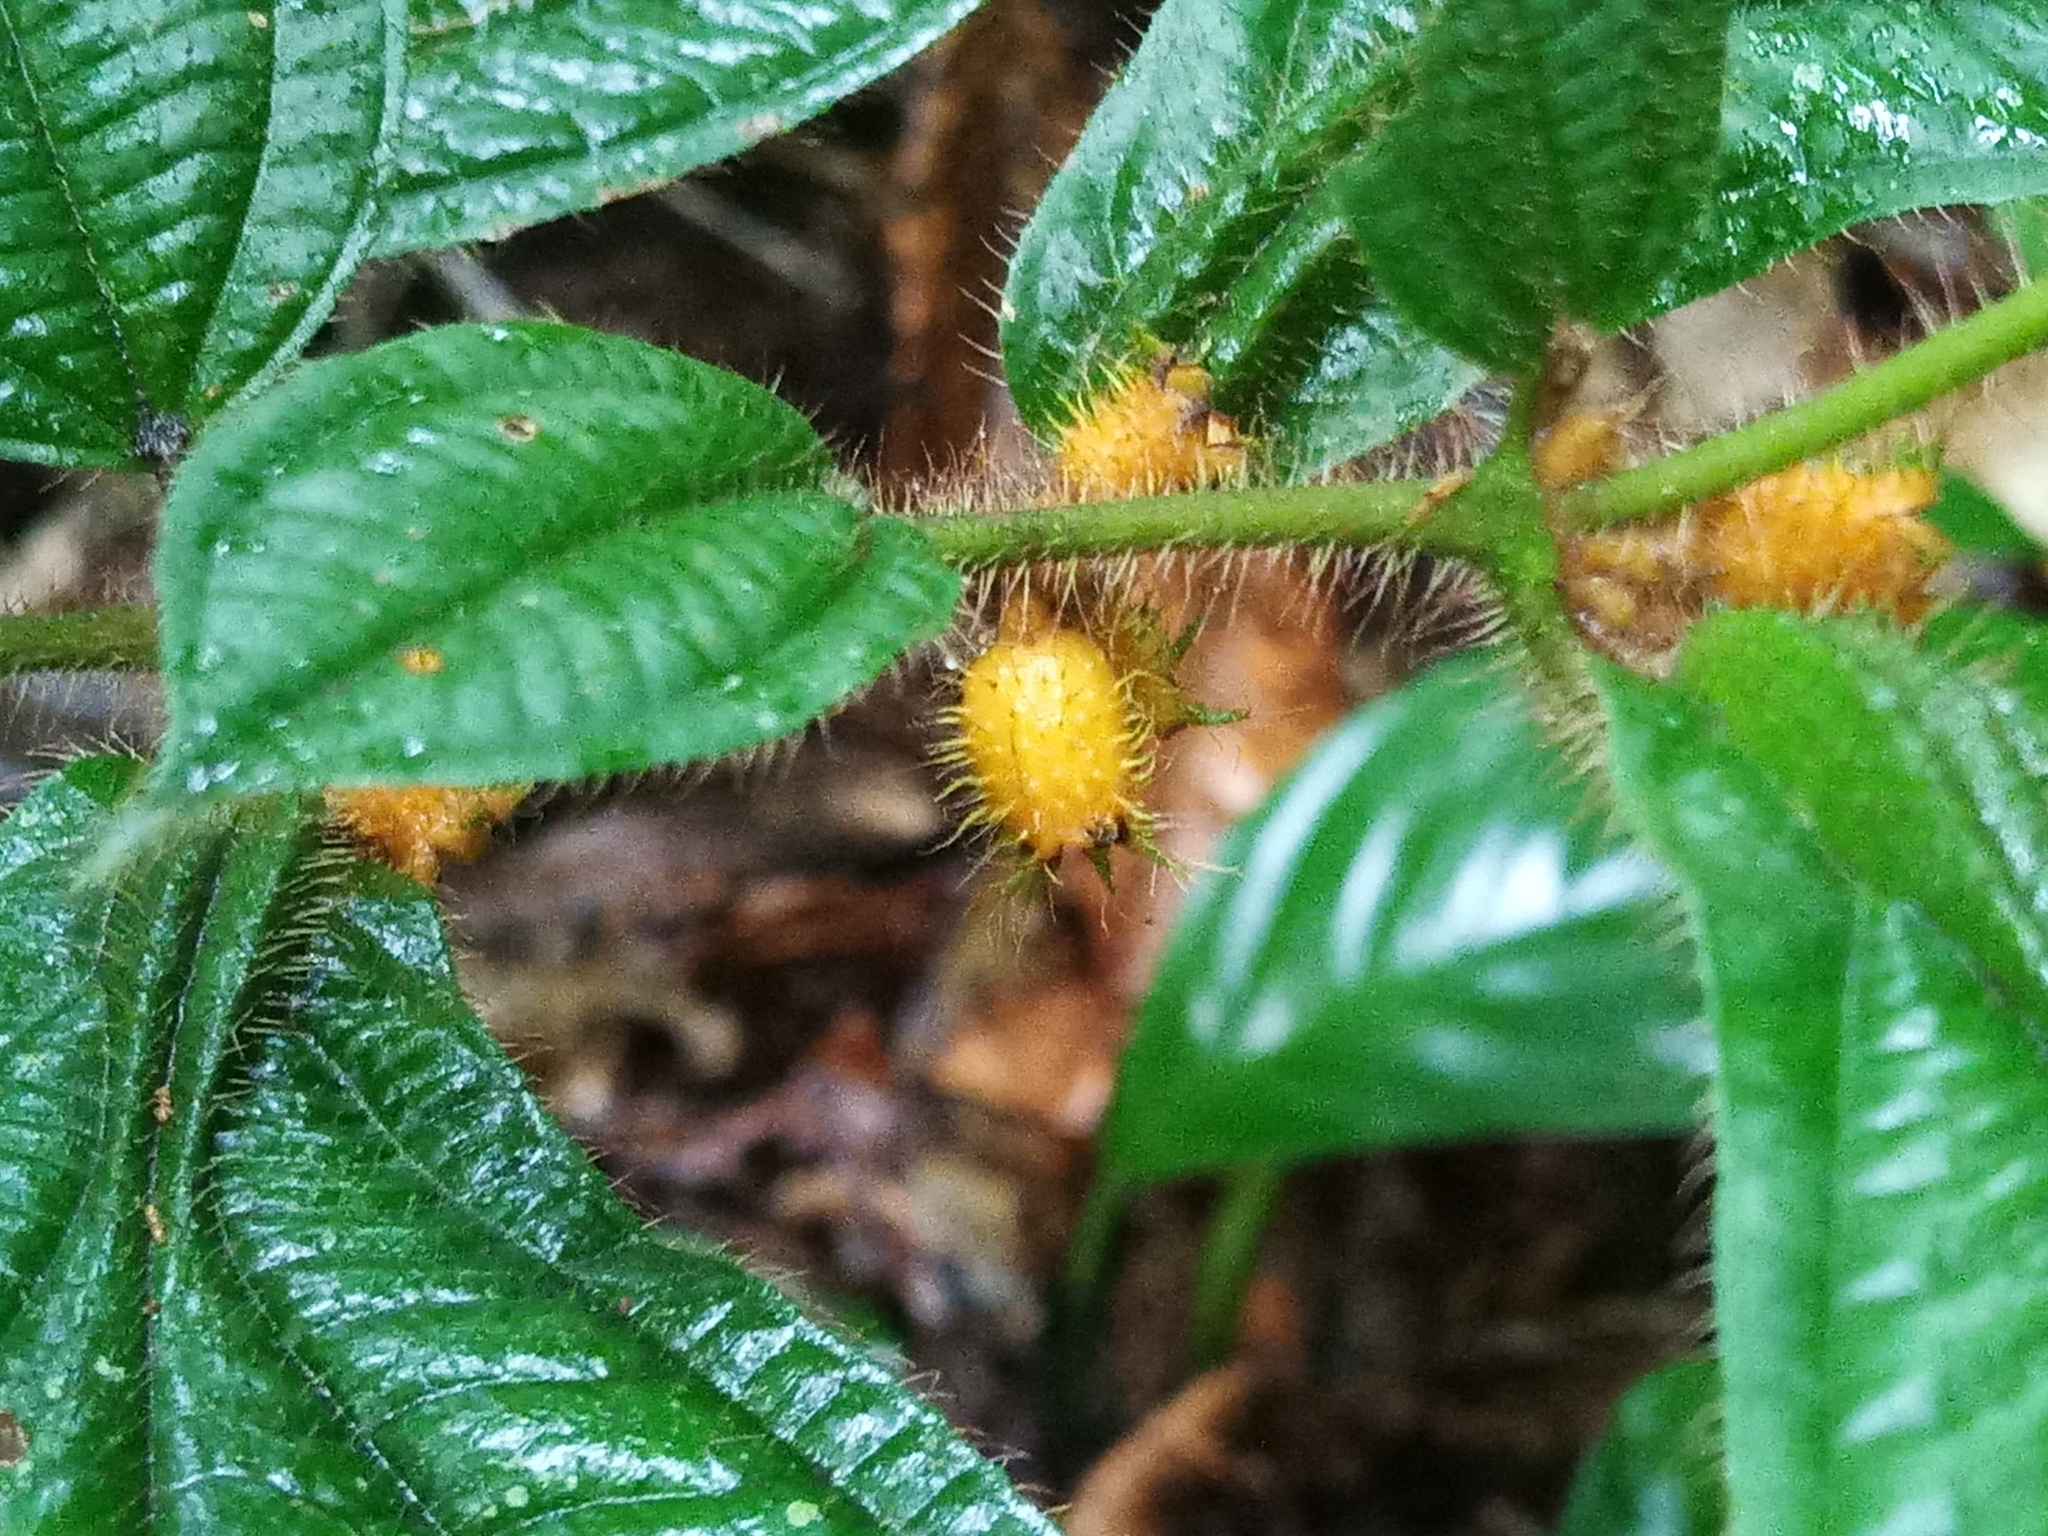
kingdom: Plantae
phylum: Tracheophyta
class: Magnoliopsida
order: Myrtales
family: Melastomataceae
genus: Miconia
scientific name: Miconia alternidomatia
